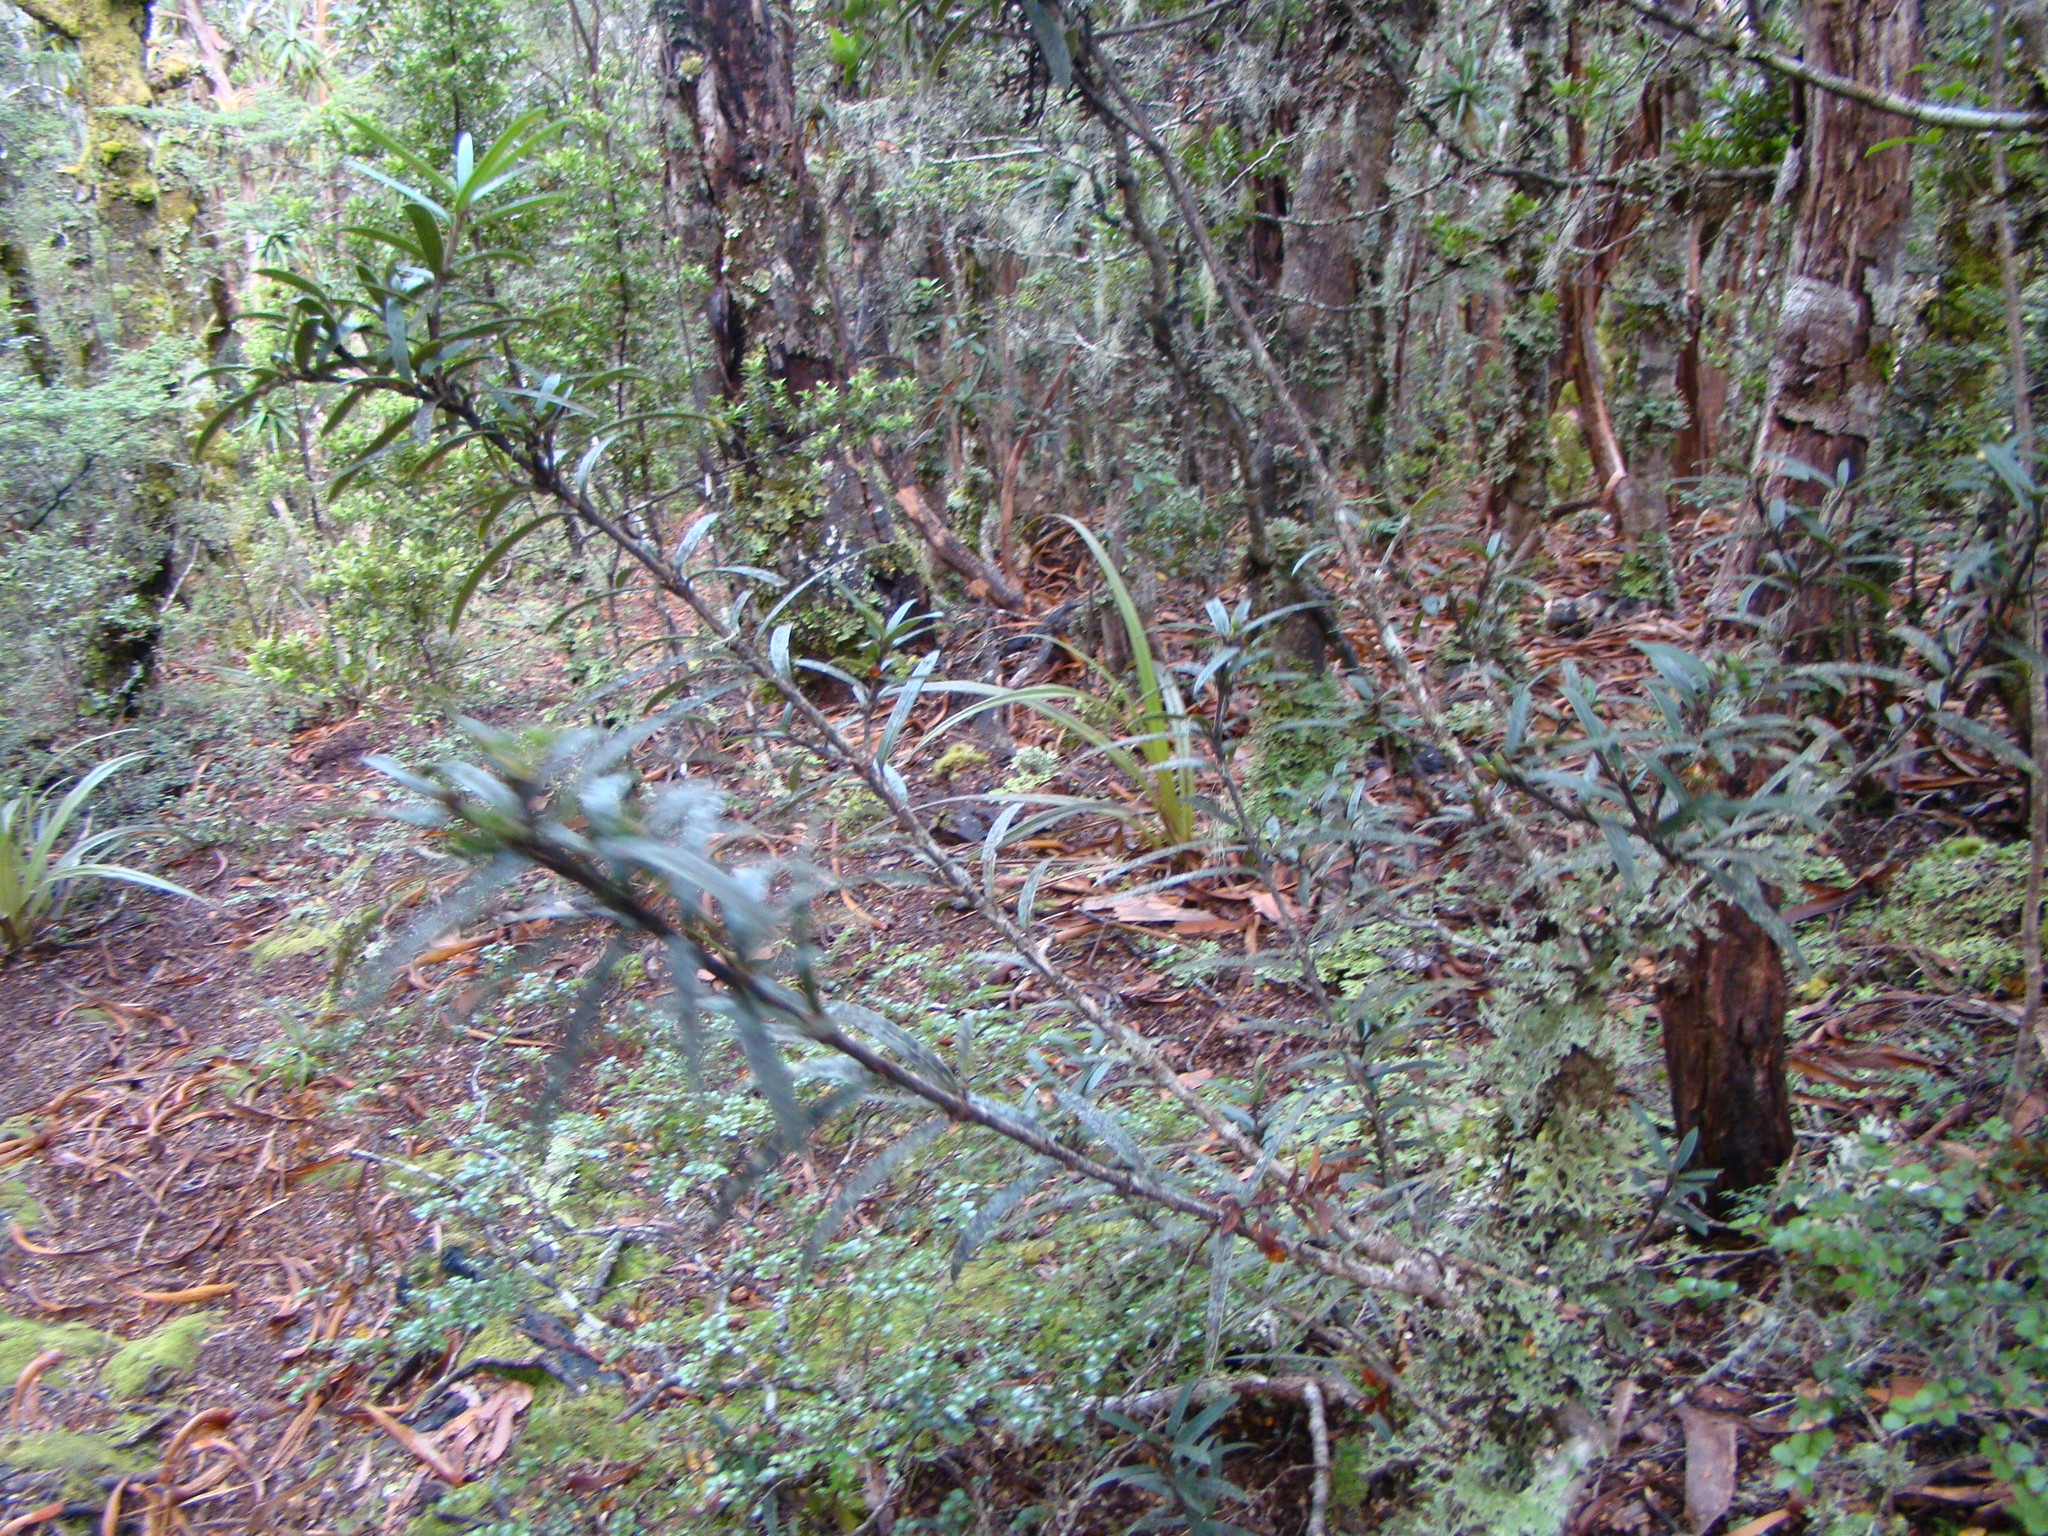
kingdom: Plantae
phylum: Tracheophyta
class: Magnoliopsida
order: Apiales
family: Araliaceae
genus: Pseudopanax
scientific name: Pseudopanax linearis
